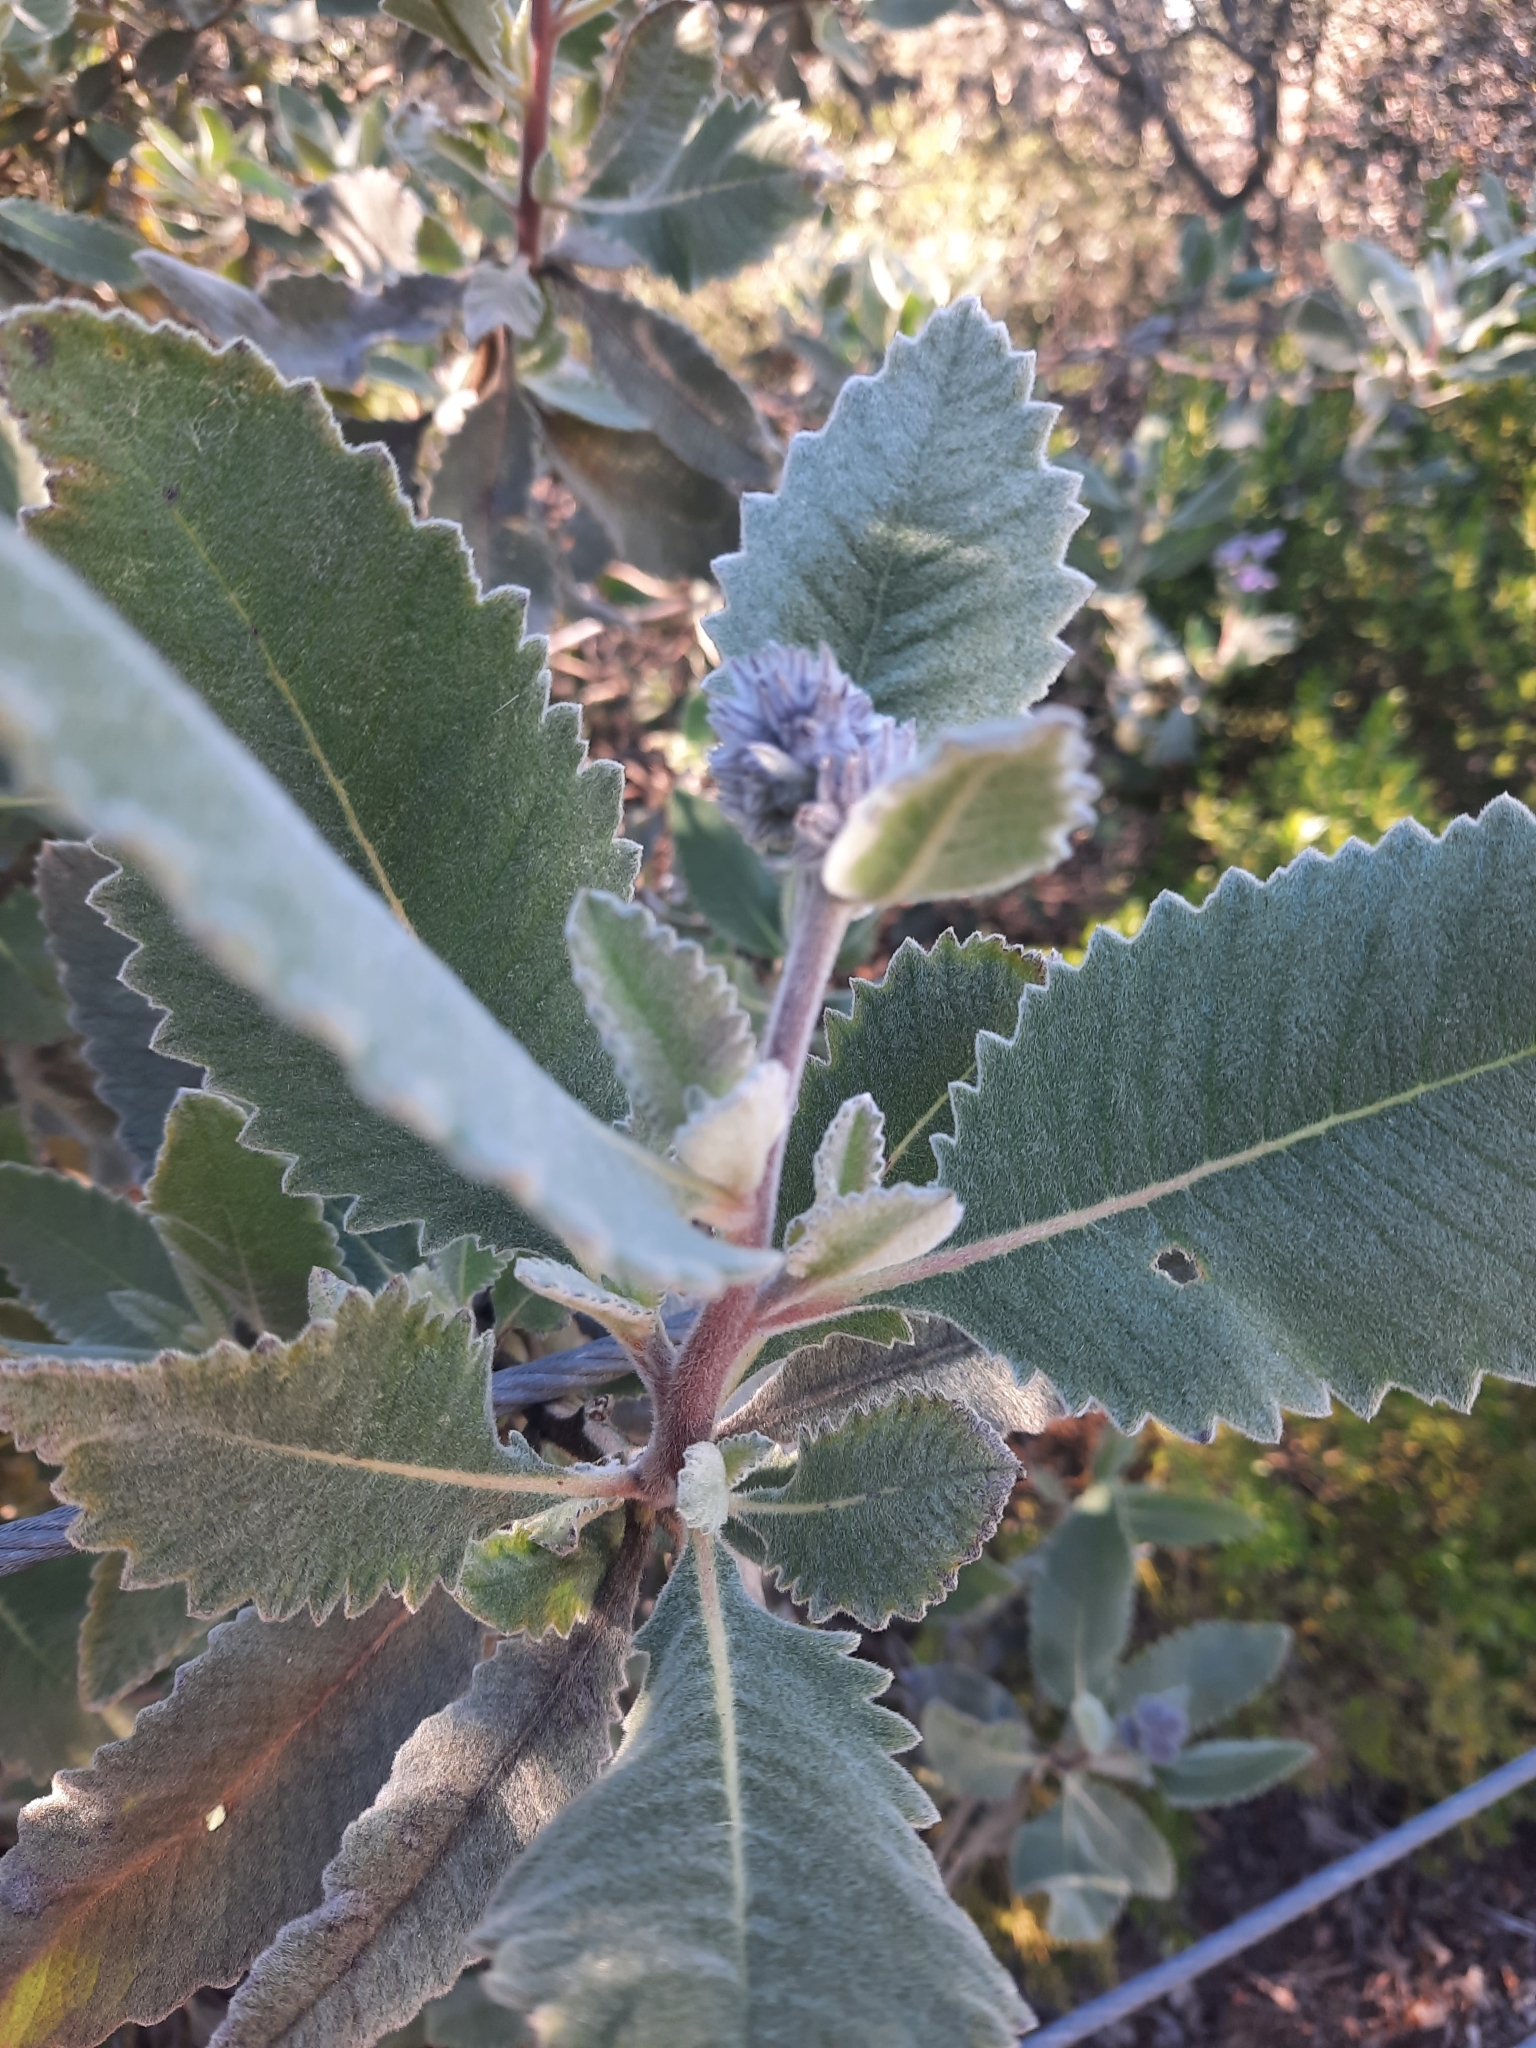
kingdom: Plantae
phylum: Tracheophyta
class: Magnoliopsida
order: Boraginales
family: Namaceae
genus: Eriodictyon
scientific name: Eriodictyon crassifolium
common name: Thick-leaf yerba-santa
